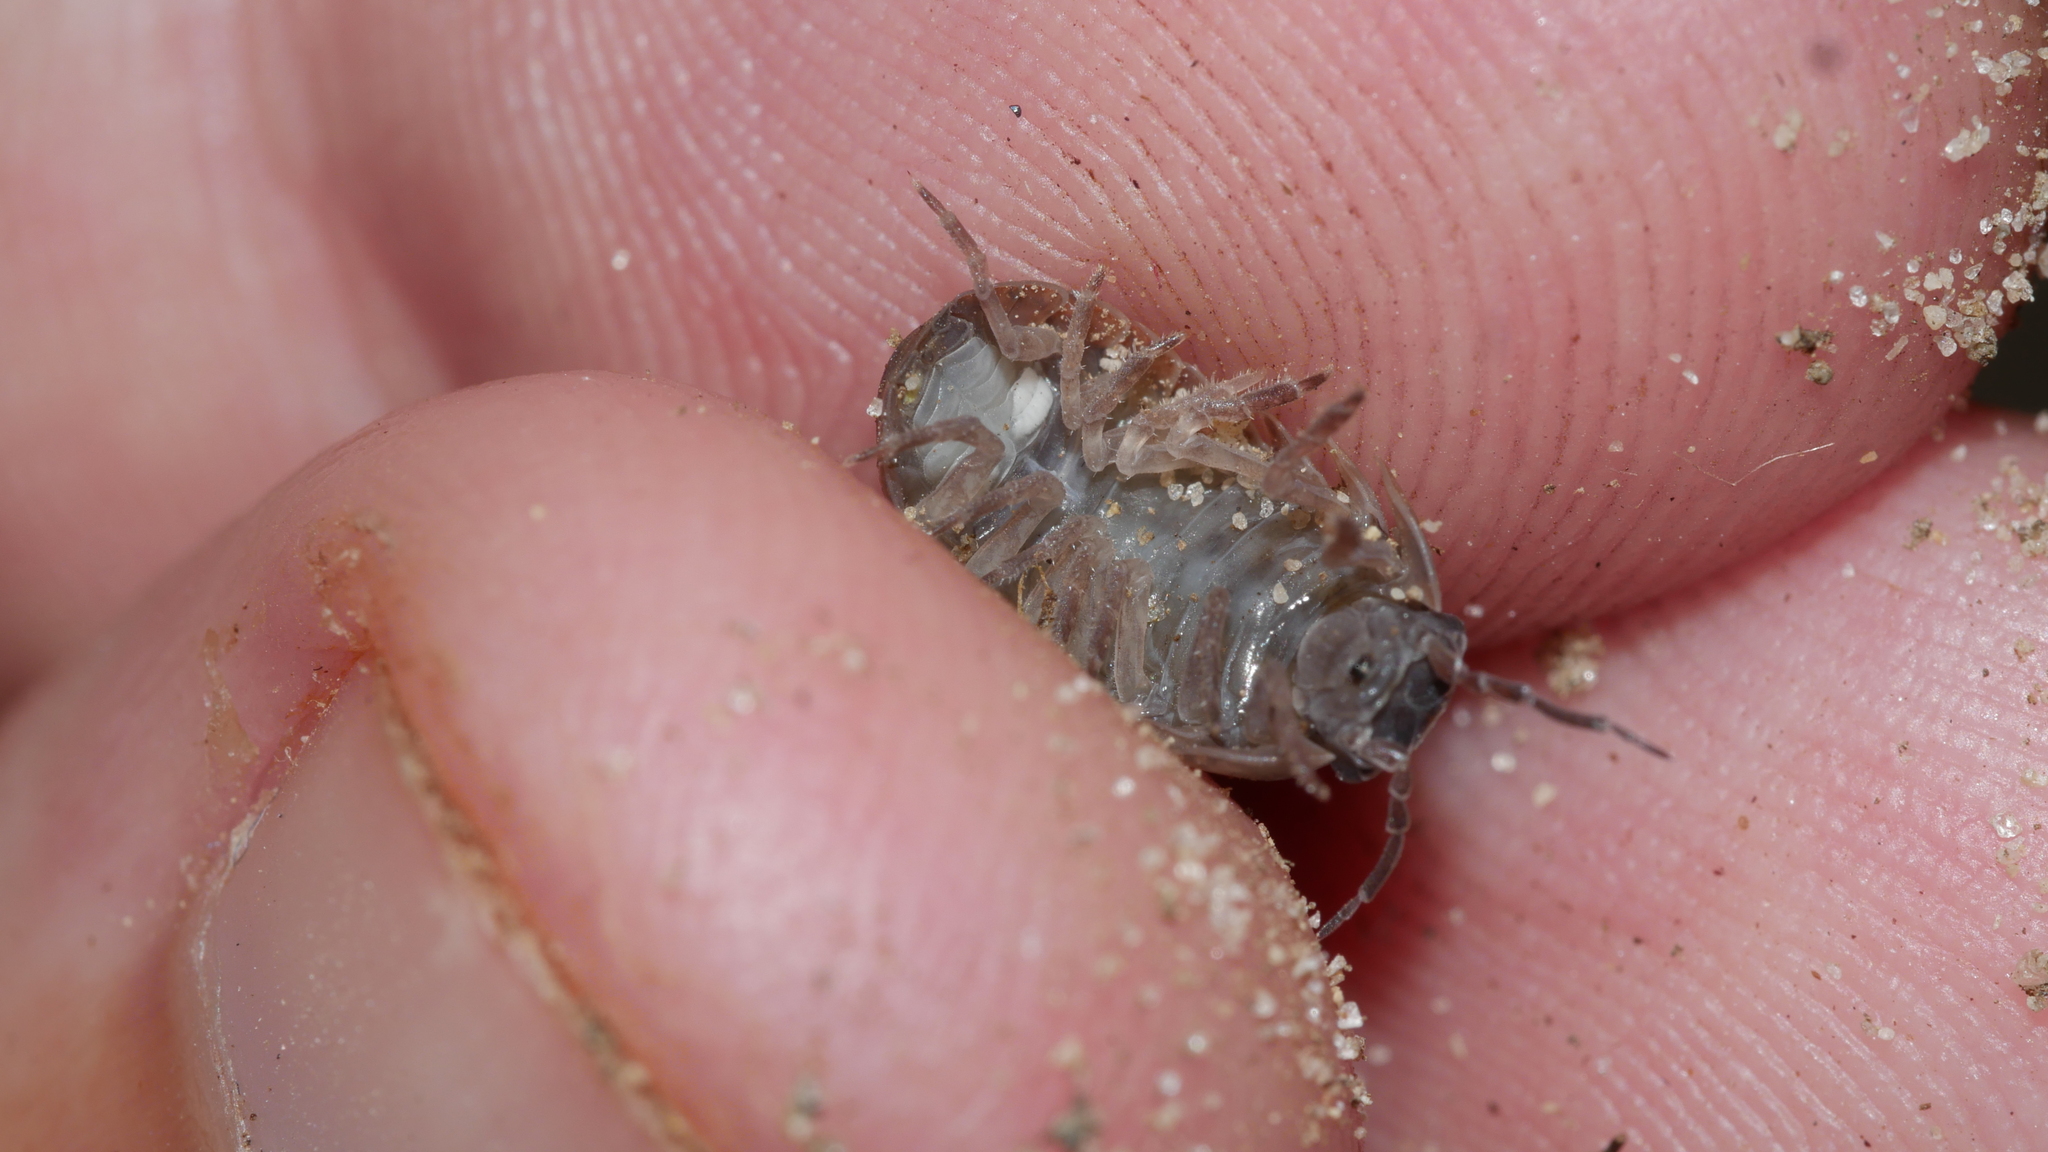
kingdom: Animalia
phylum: Arthropoda
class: Malacostraca
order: Isopoda
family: Armadillidiidae
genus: Armadillidium
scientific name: Armadillidium vulgare
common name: Common pill woodlouse
